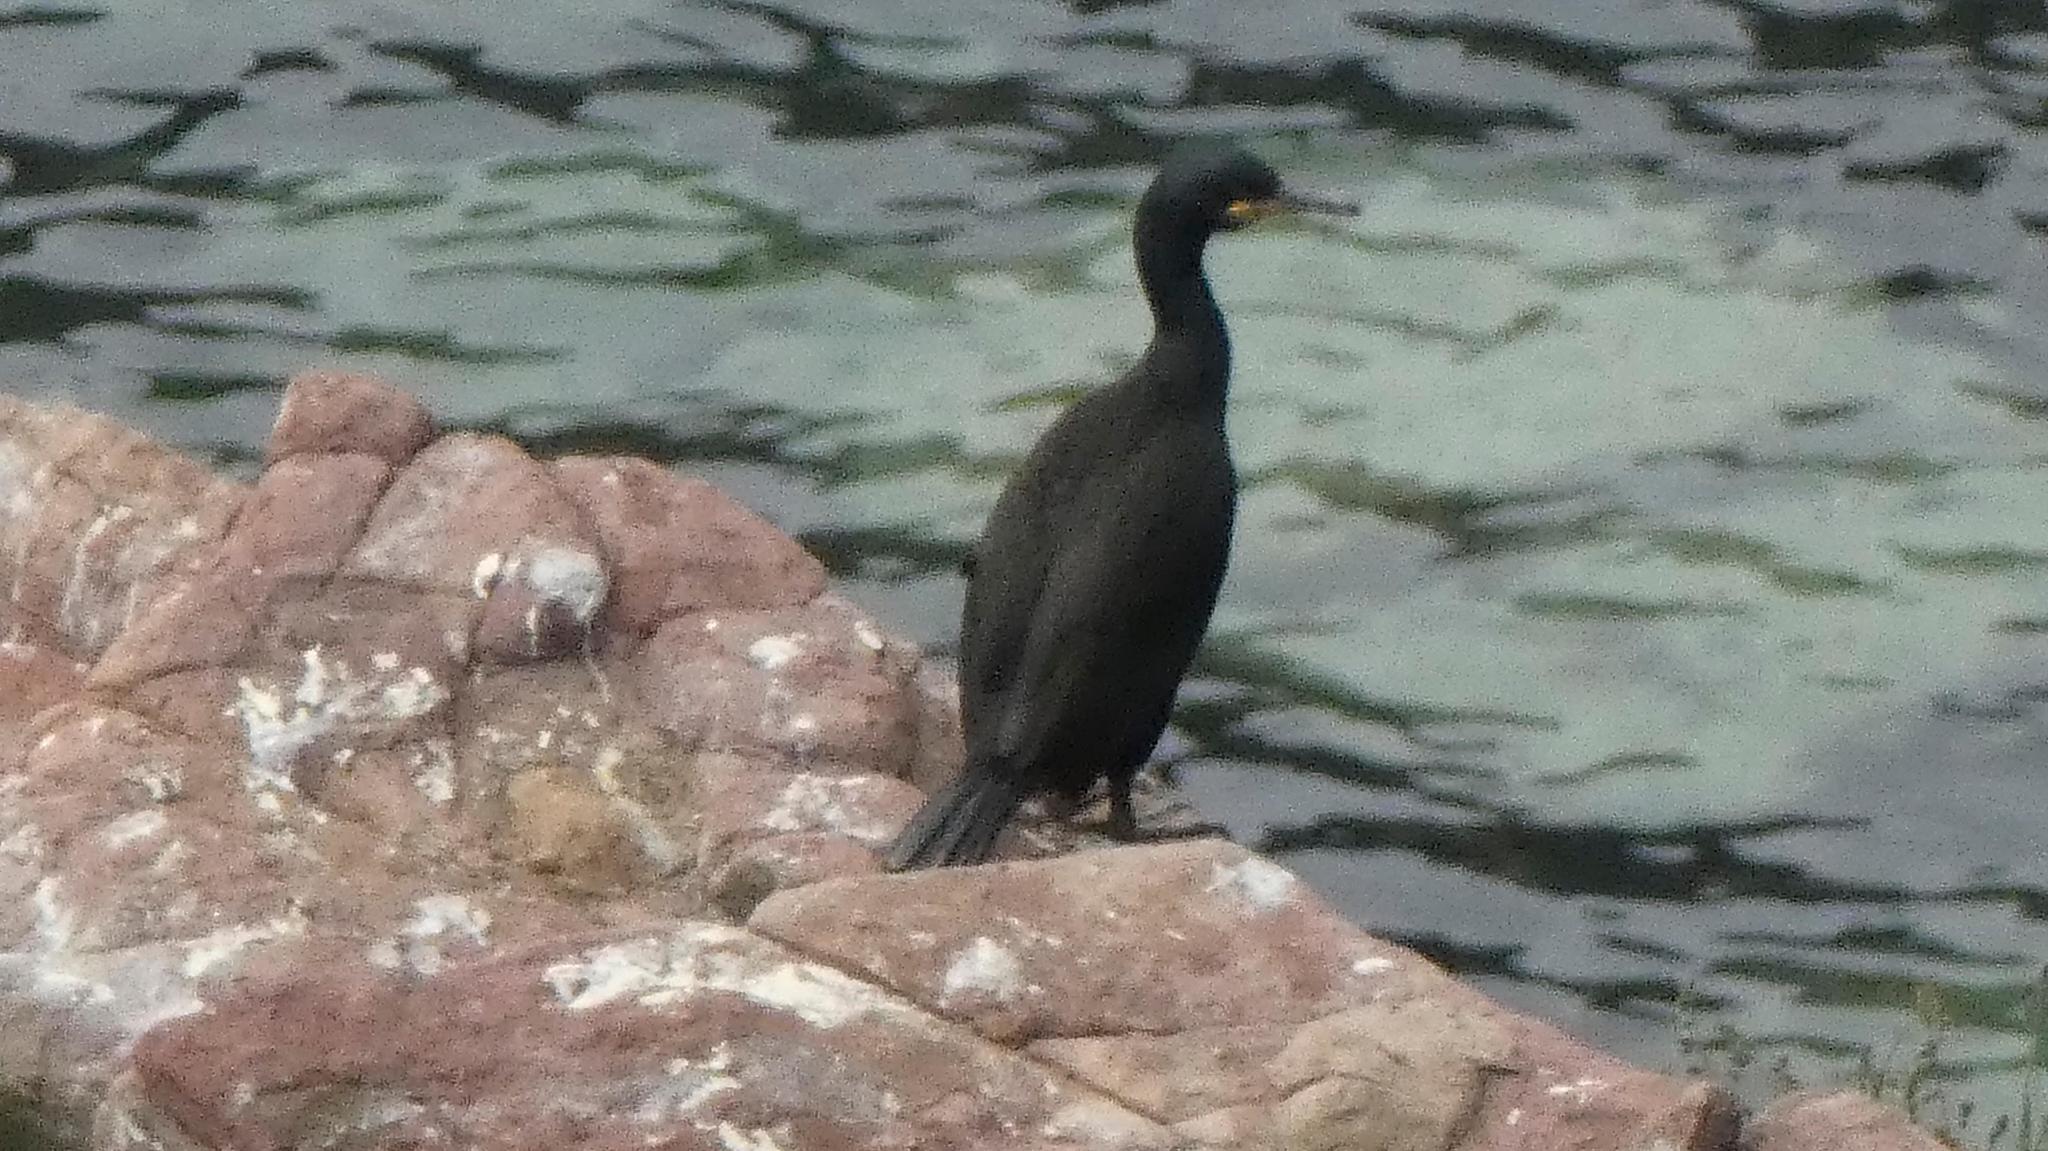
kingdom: Animalia
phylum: Chordata
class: Aves
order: Suliformes
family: Phalacrocoracidae
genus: Phalacrocorax
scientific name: Phalacrocorax aristotelis
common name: European shag
